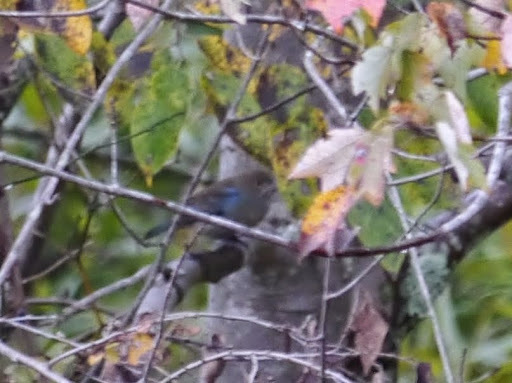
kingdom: Animalia
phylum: Chordata
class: Aves
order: Passeriformes
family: Cardinalidae
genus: Passerina
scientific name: Passerina cyanea
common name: Indigo bunting
